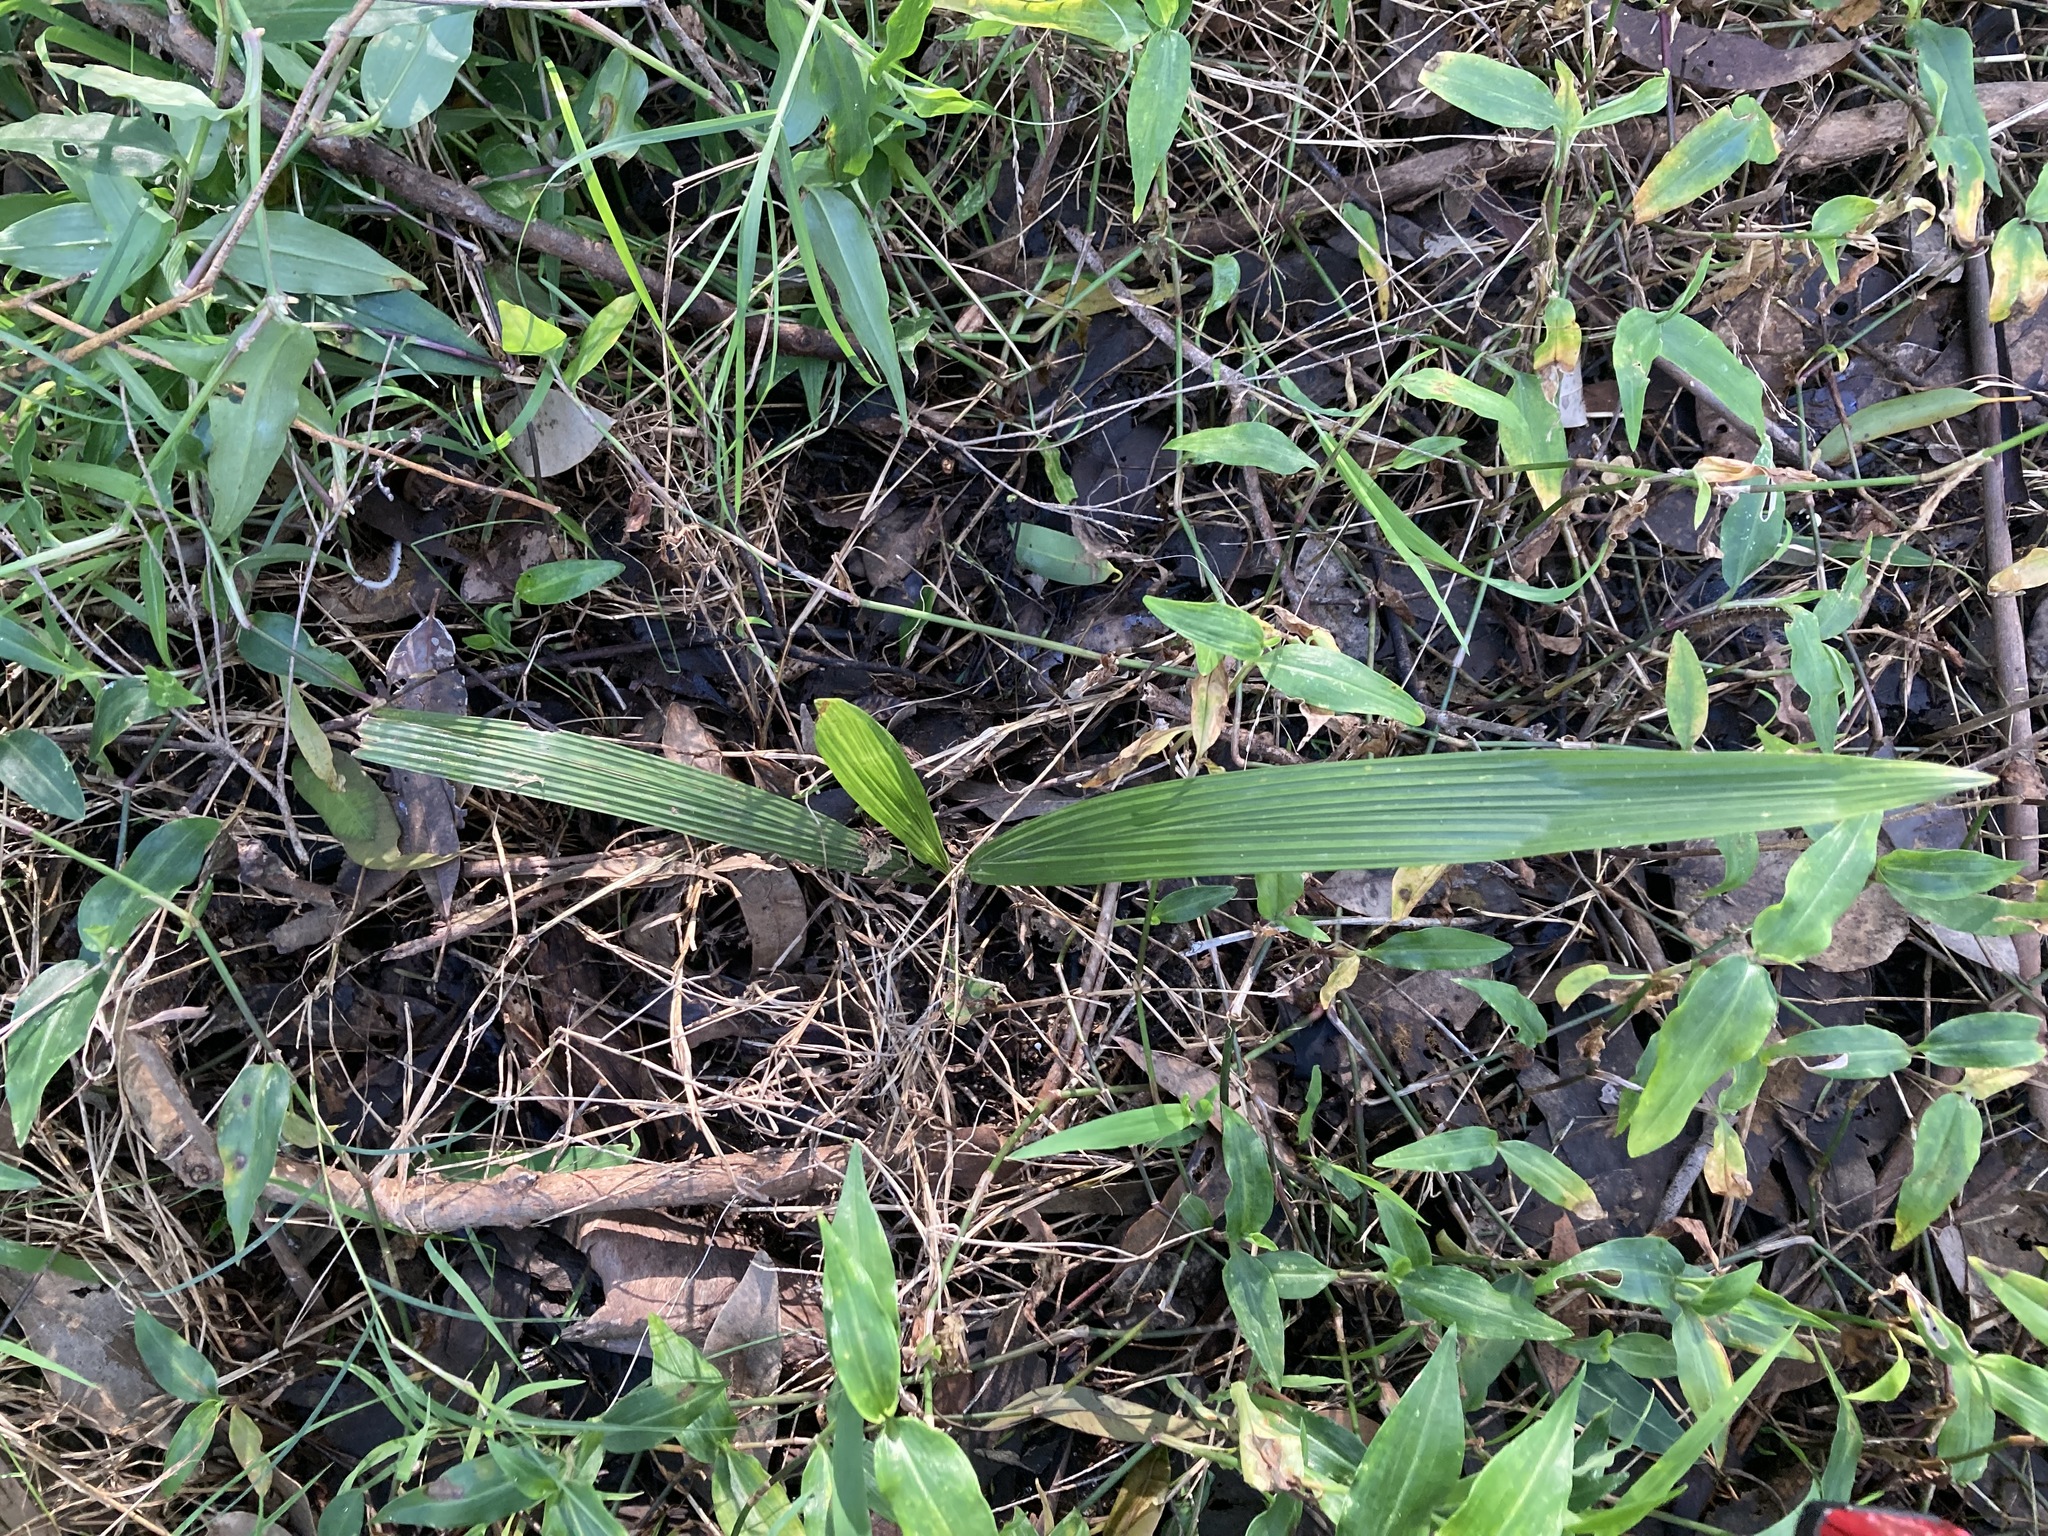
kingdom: Plantae
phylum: Tracheophyta
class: Liliopsida
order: Arecales
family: Arecaceae
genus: Syagrus
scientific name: Syagrus romanzoffiana
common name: Queen palm
